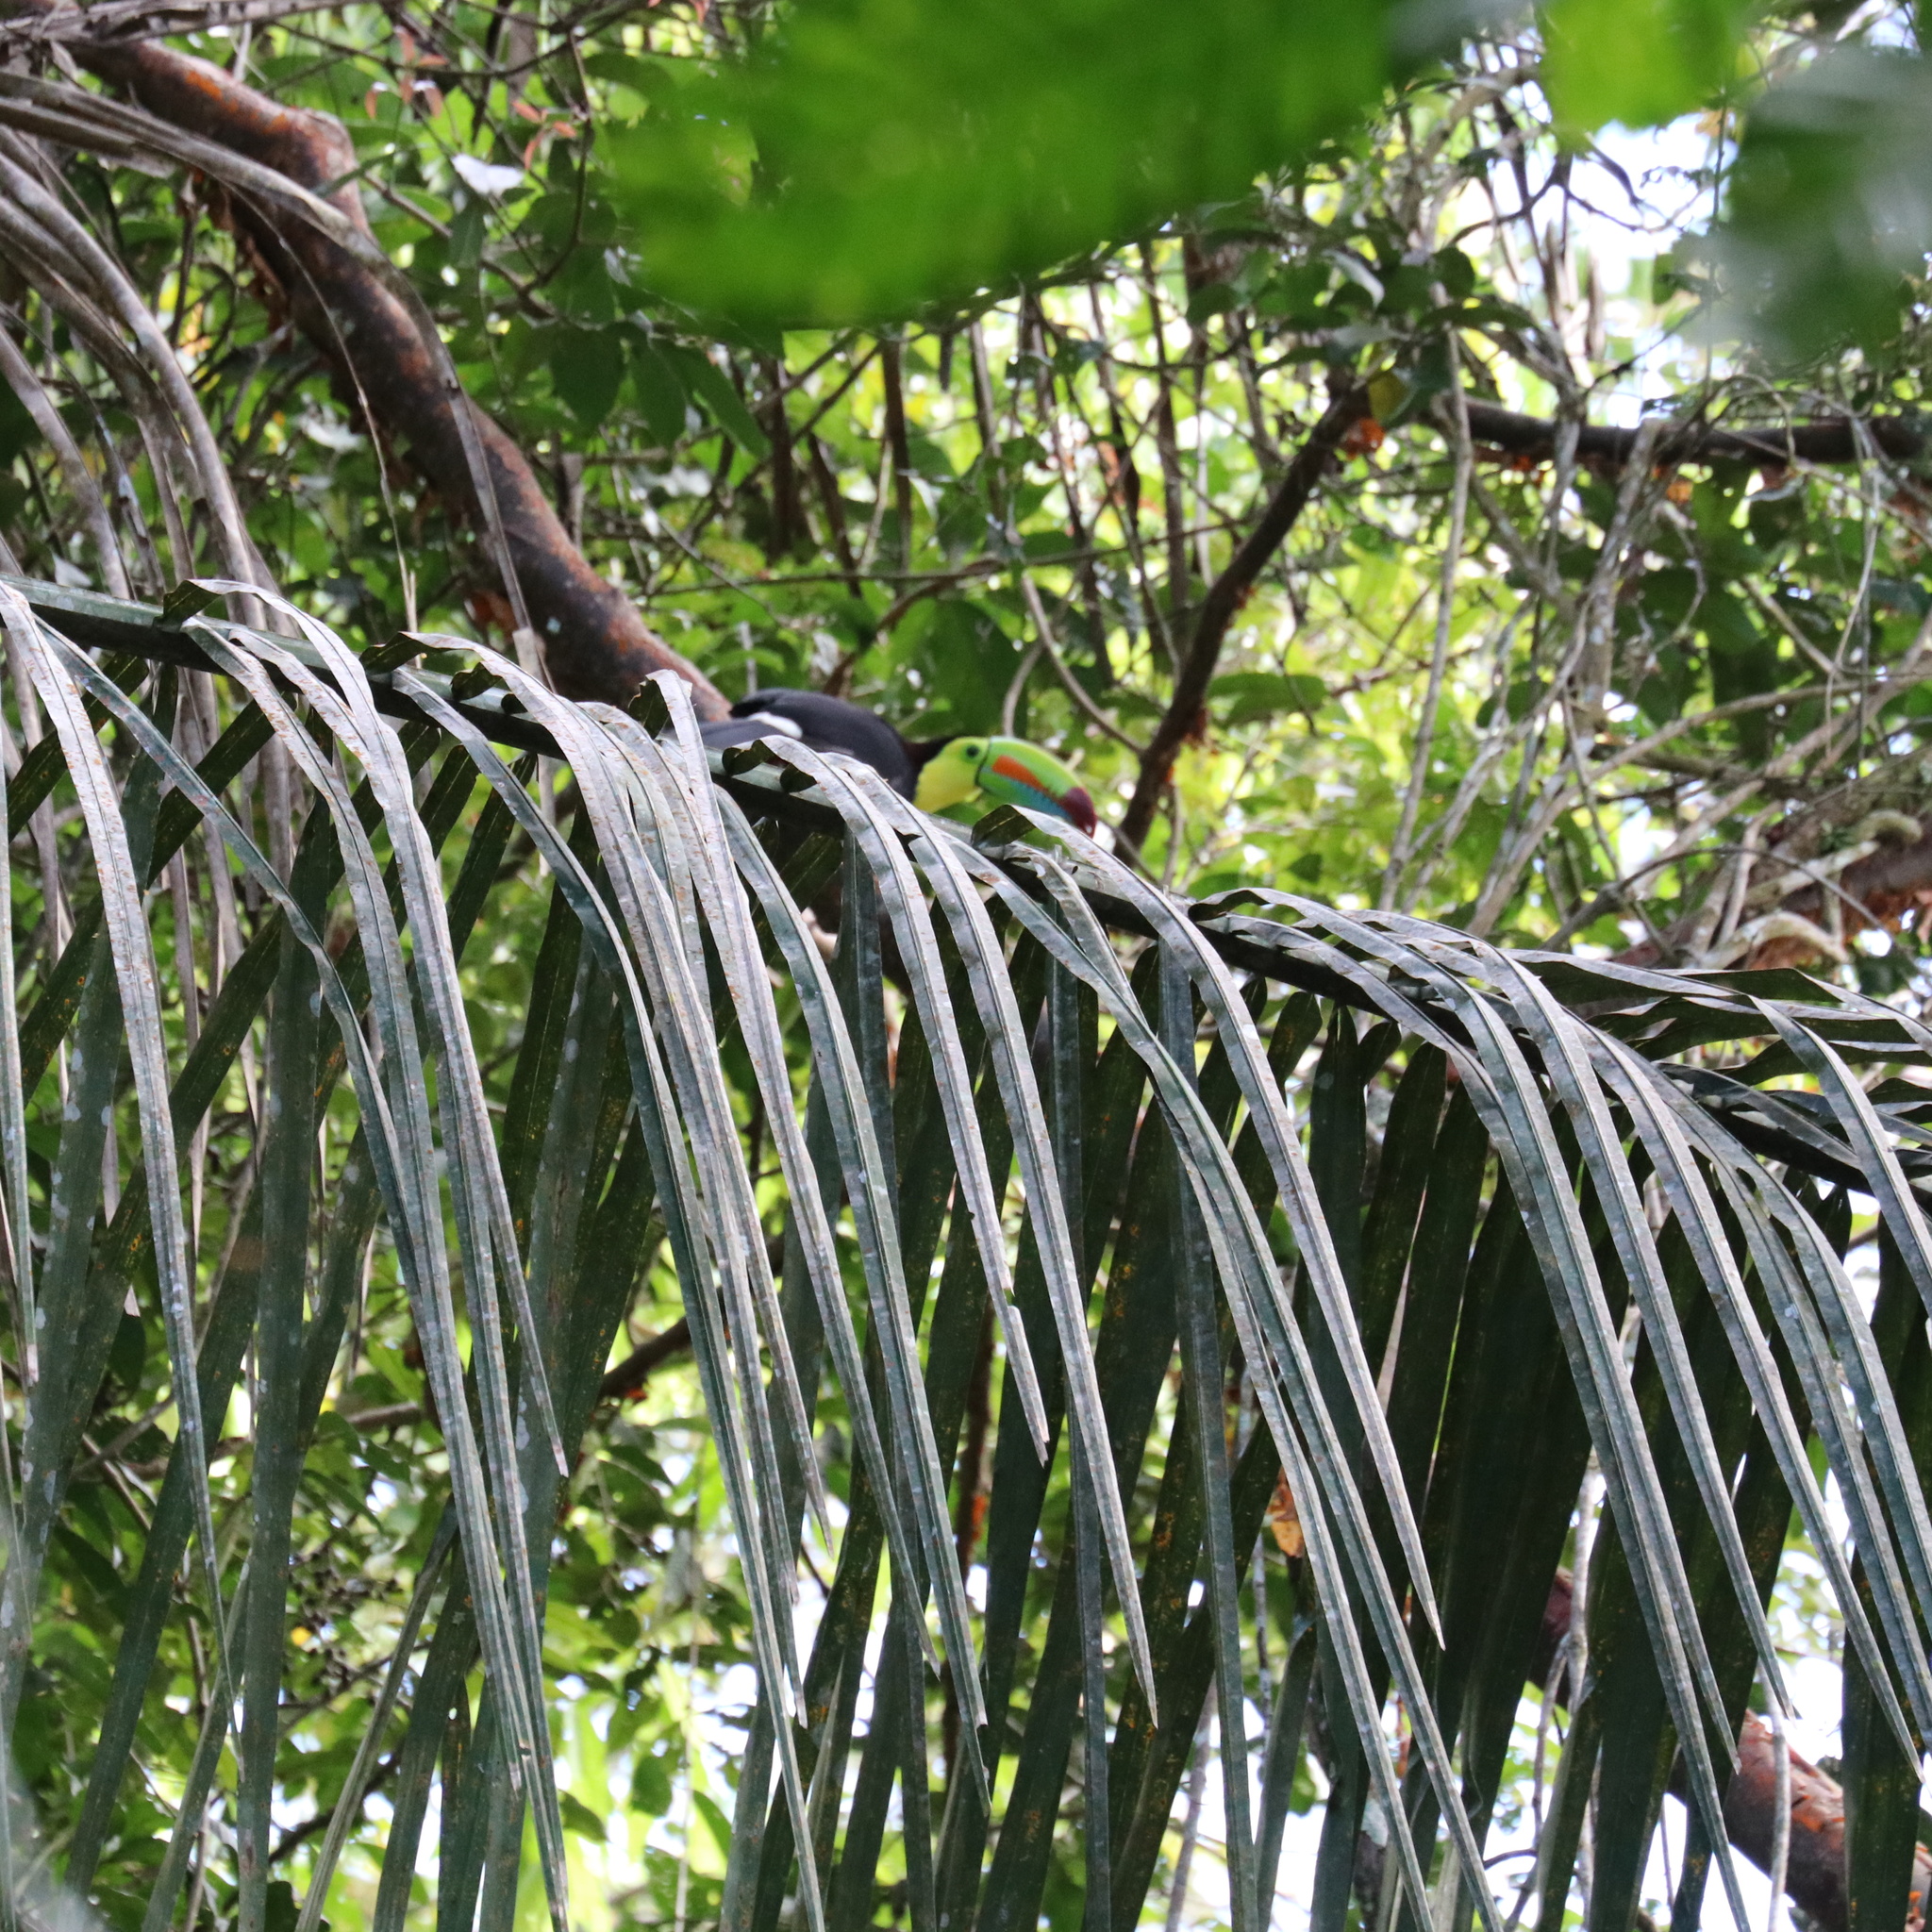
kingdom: Animalia
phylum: Chordata
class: Aves
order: Piciformes
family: Ramphastidae
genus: Ramphastos
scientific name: Ramphastos sulfuratus
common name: Keel-billed toucan
